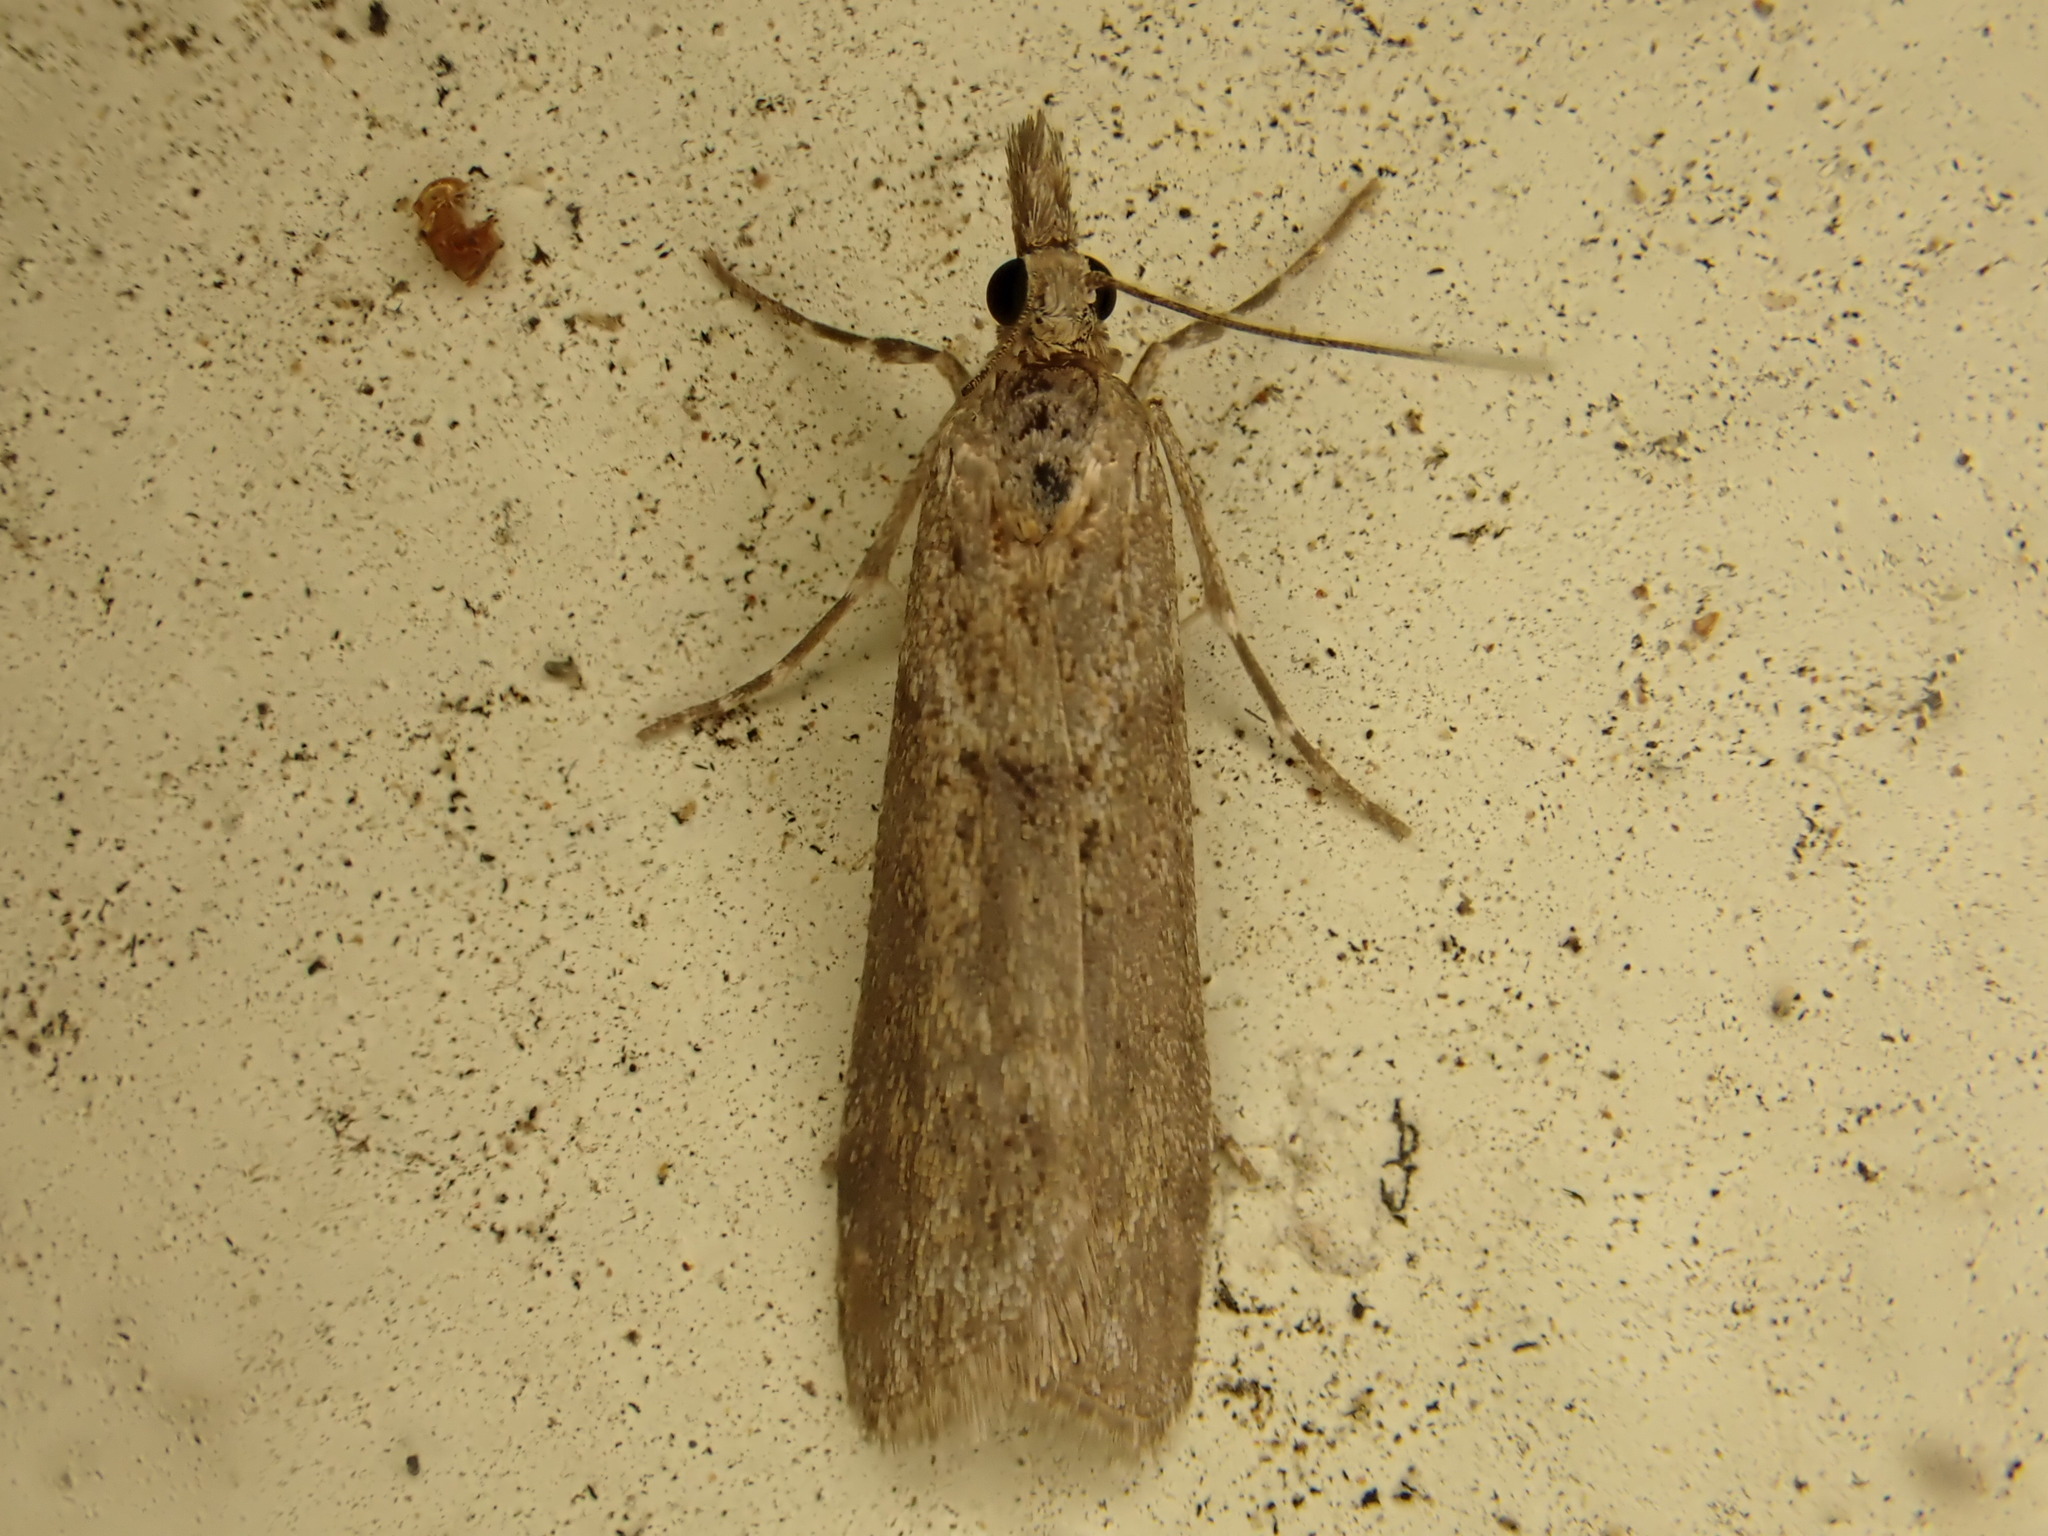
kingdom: Animalia
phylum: Arthropoda
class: Insecta
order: Lepidoptera
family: Crambidae
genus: Eudonia
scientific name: Eudonia leptalea
